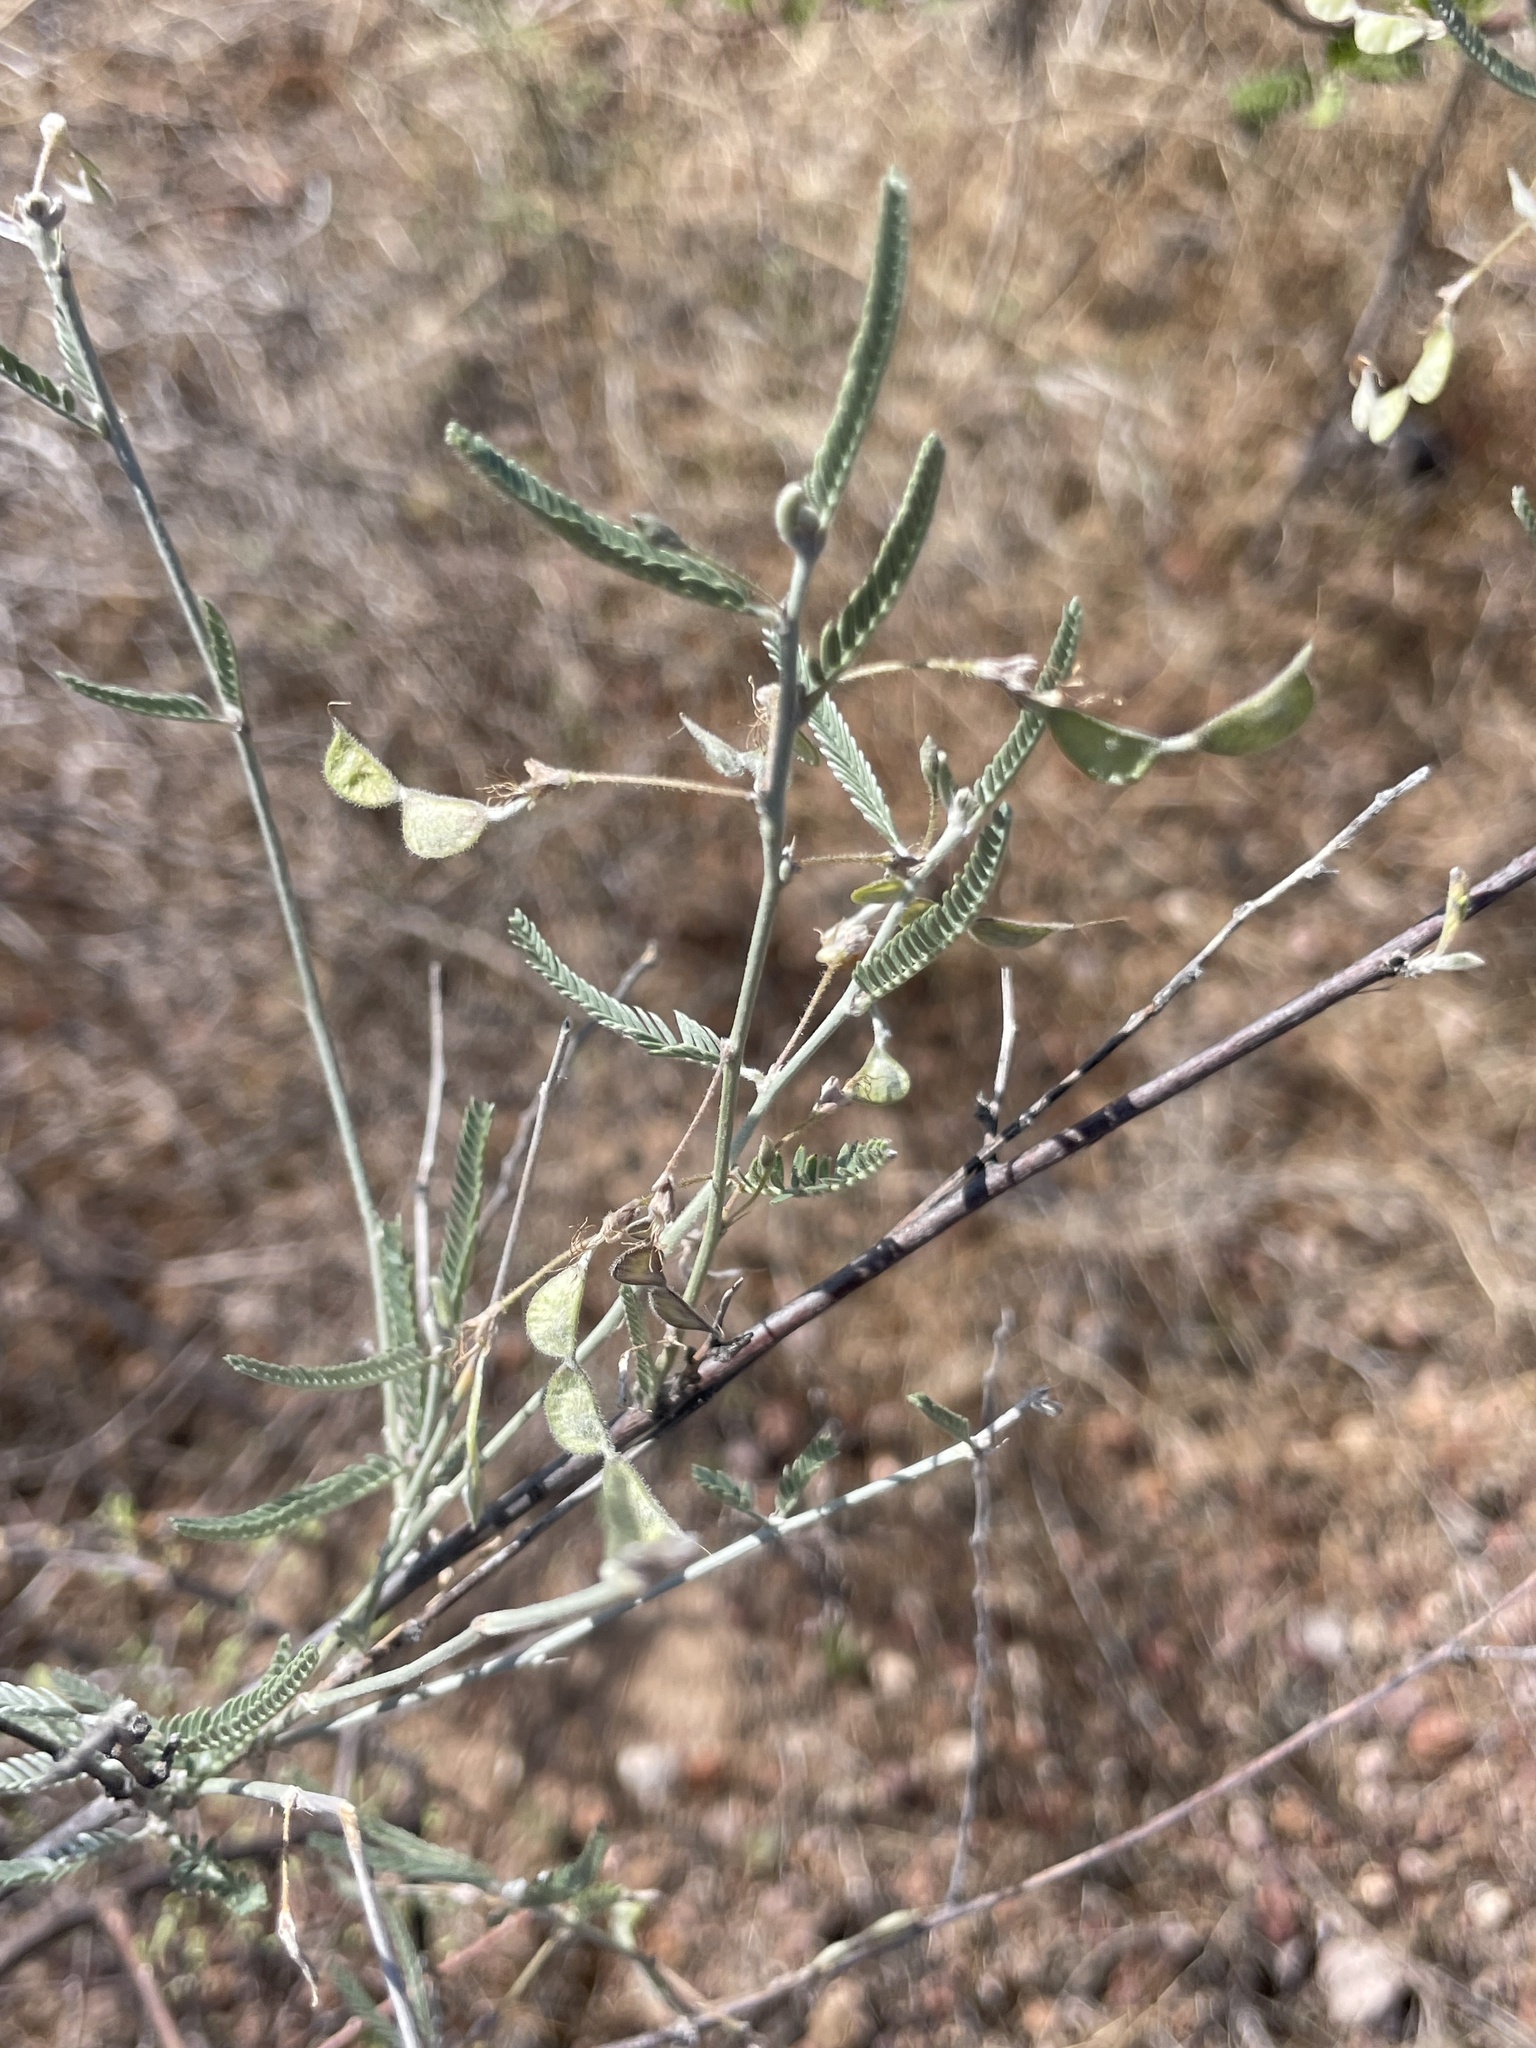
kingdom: Plantae
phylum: Tracheophyta
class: Magnoliopsida
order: Fabales
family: Fabaceae
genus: Ctenodon
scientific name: Ctenodon niveus
